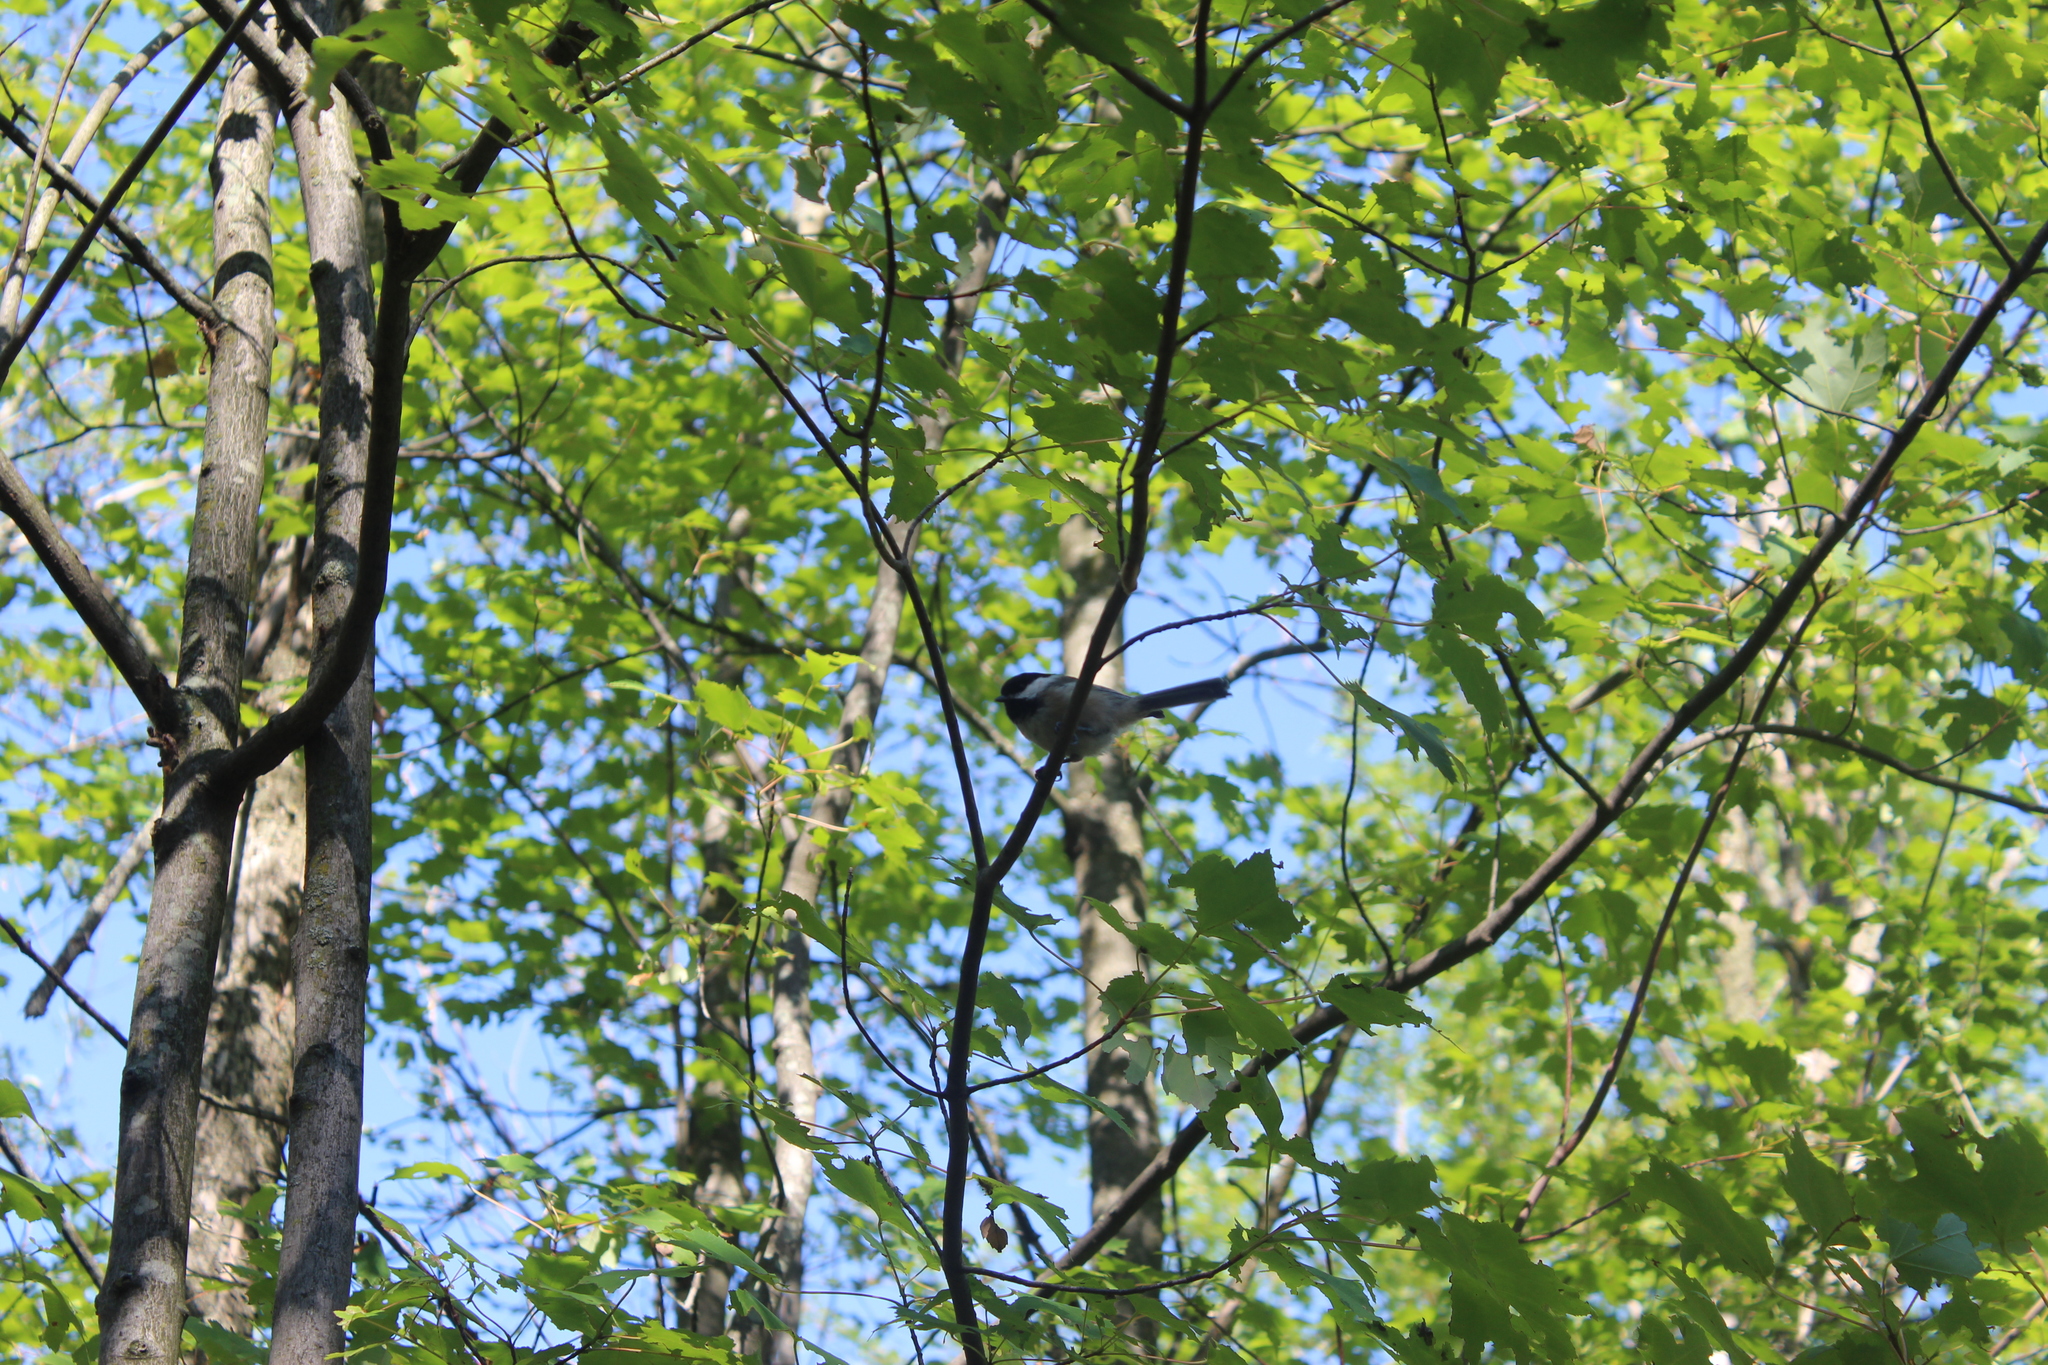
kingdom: Animalia
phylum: Chordata
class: Aves
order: Passeriformes
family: Paridae
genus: Poecile
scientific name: Poecile atricapillus
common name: Black-capped chickadee
